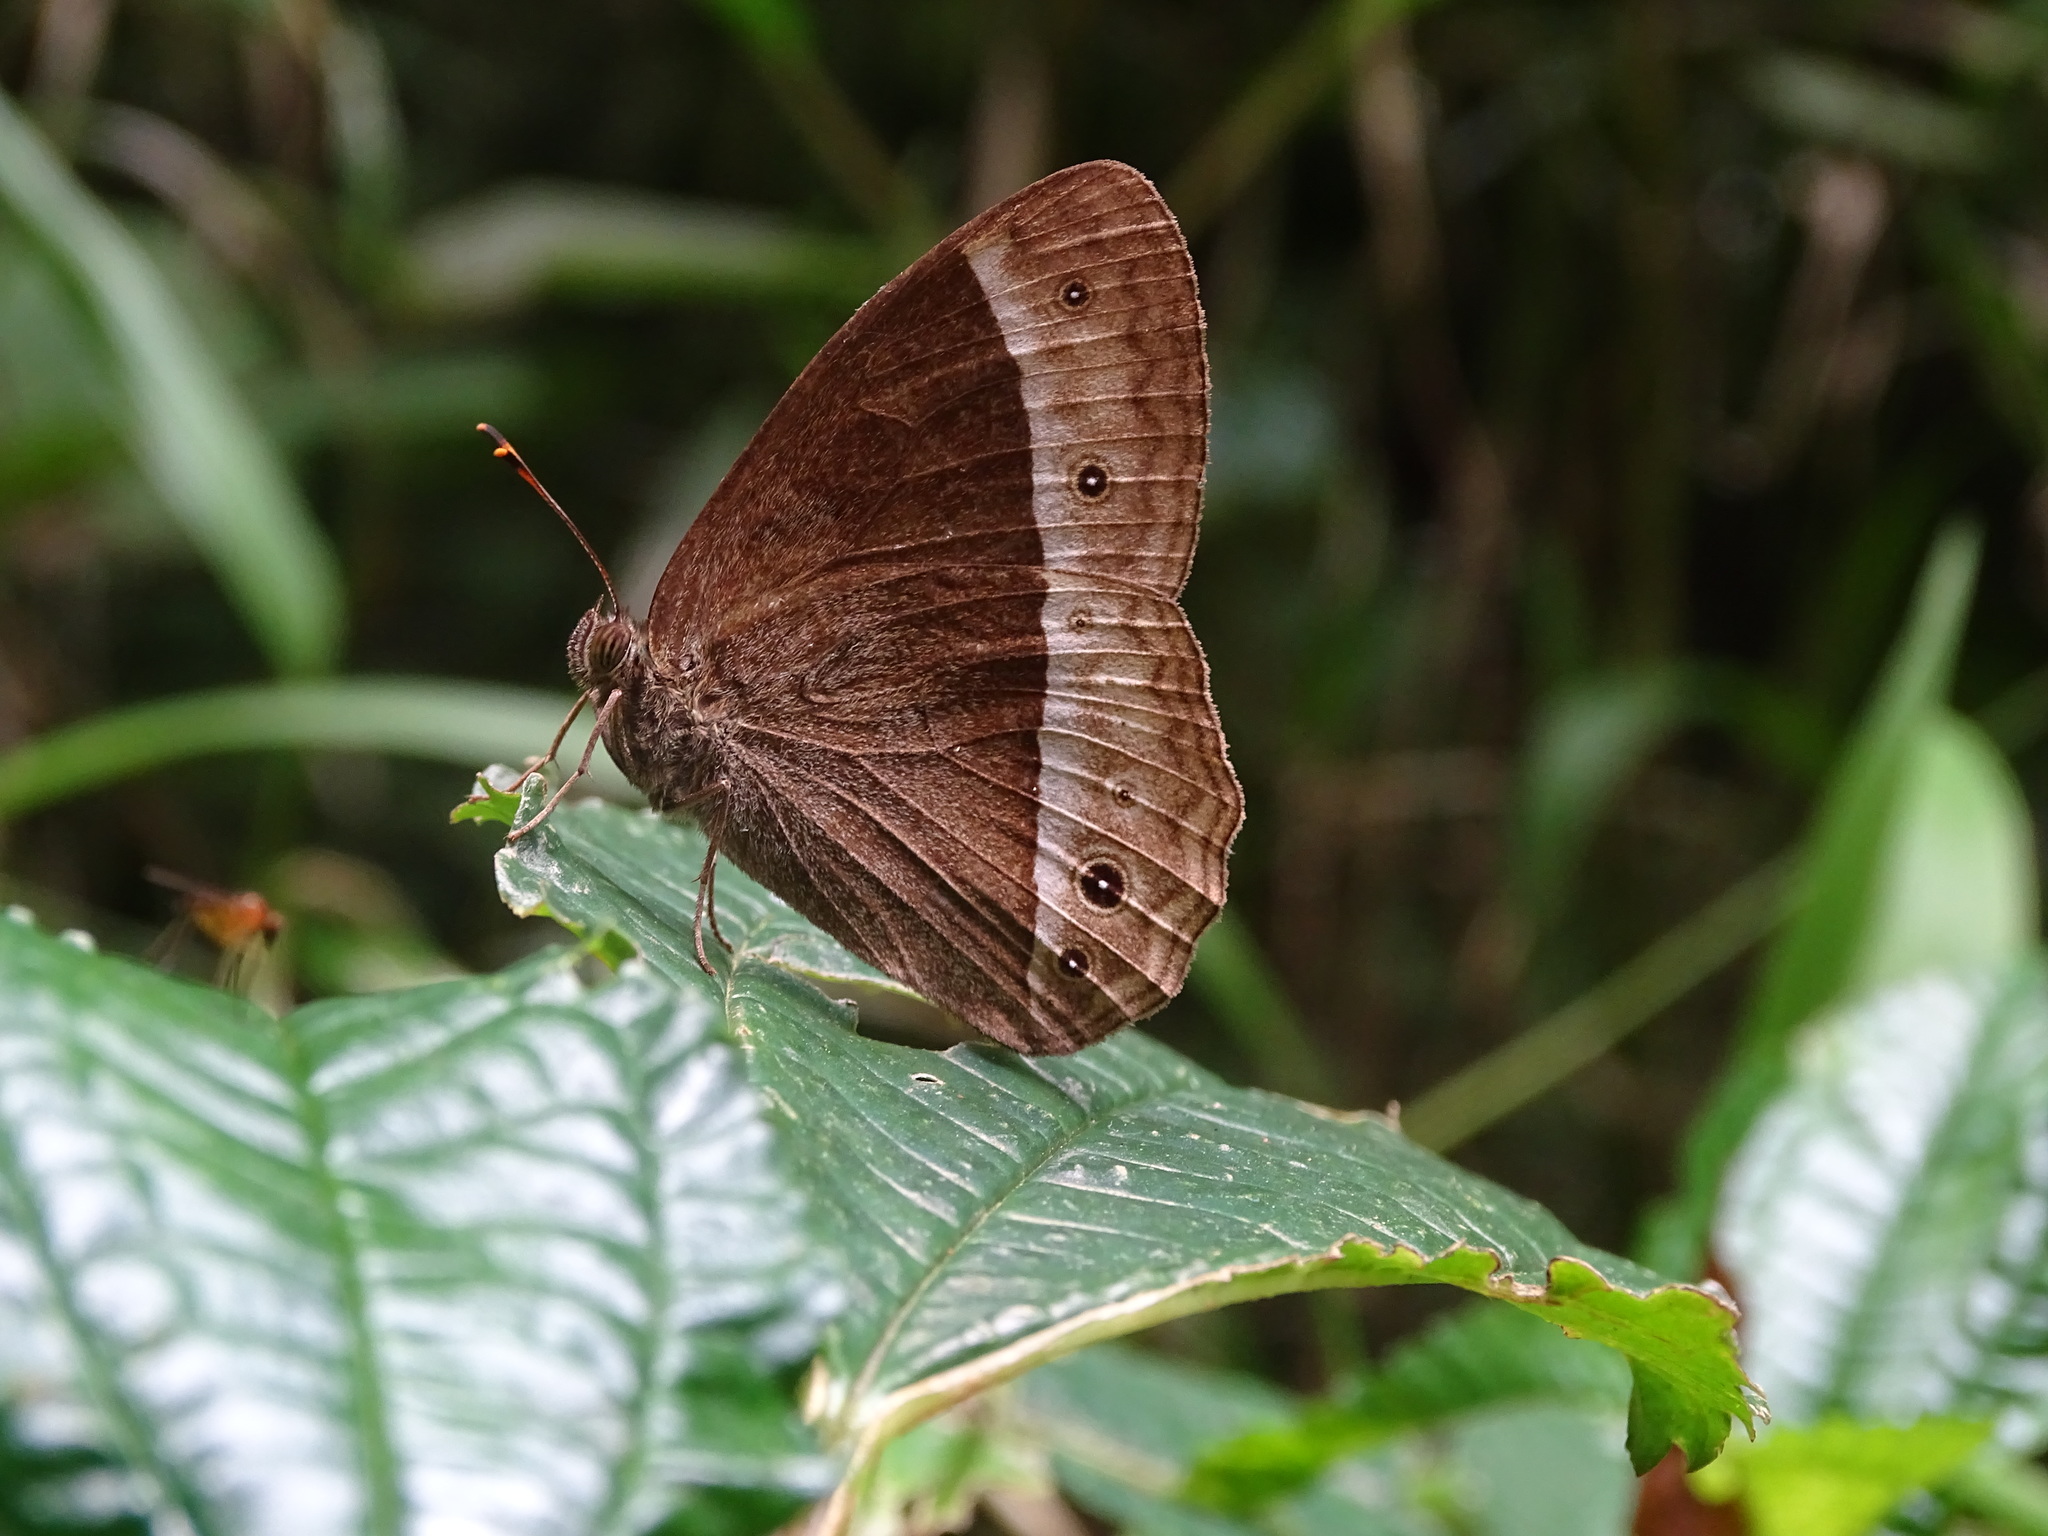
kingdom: Animalia
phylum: Arthropoda
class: Insecta
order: Lepidoptera
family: Nymphalidae
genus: Mycalesis
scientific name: Mycalesis sudra
